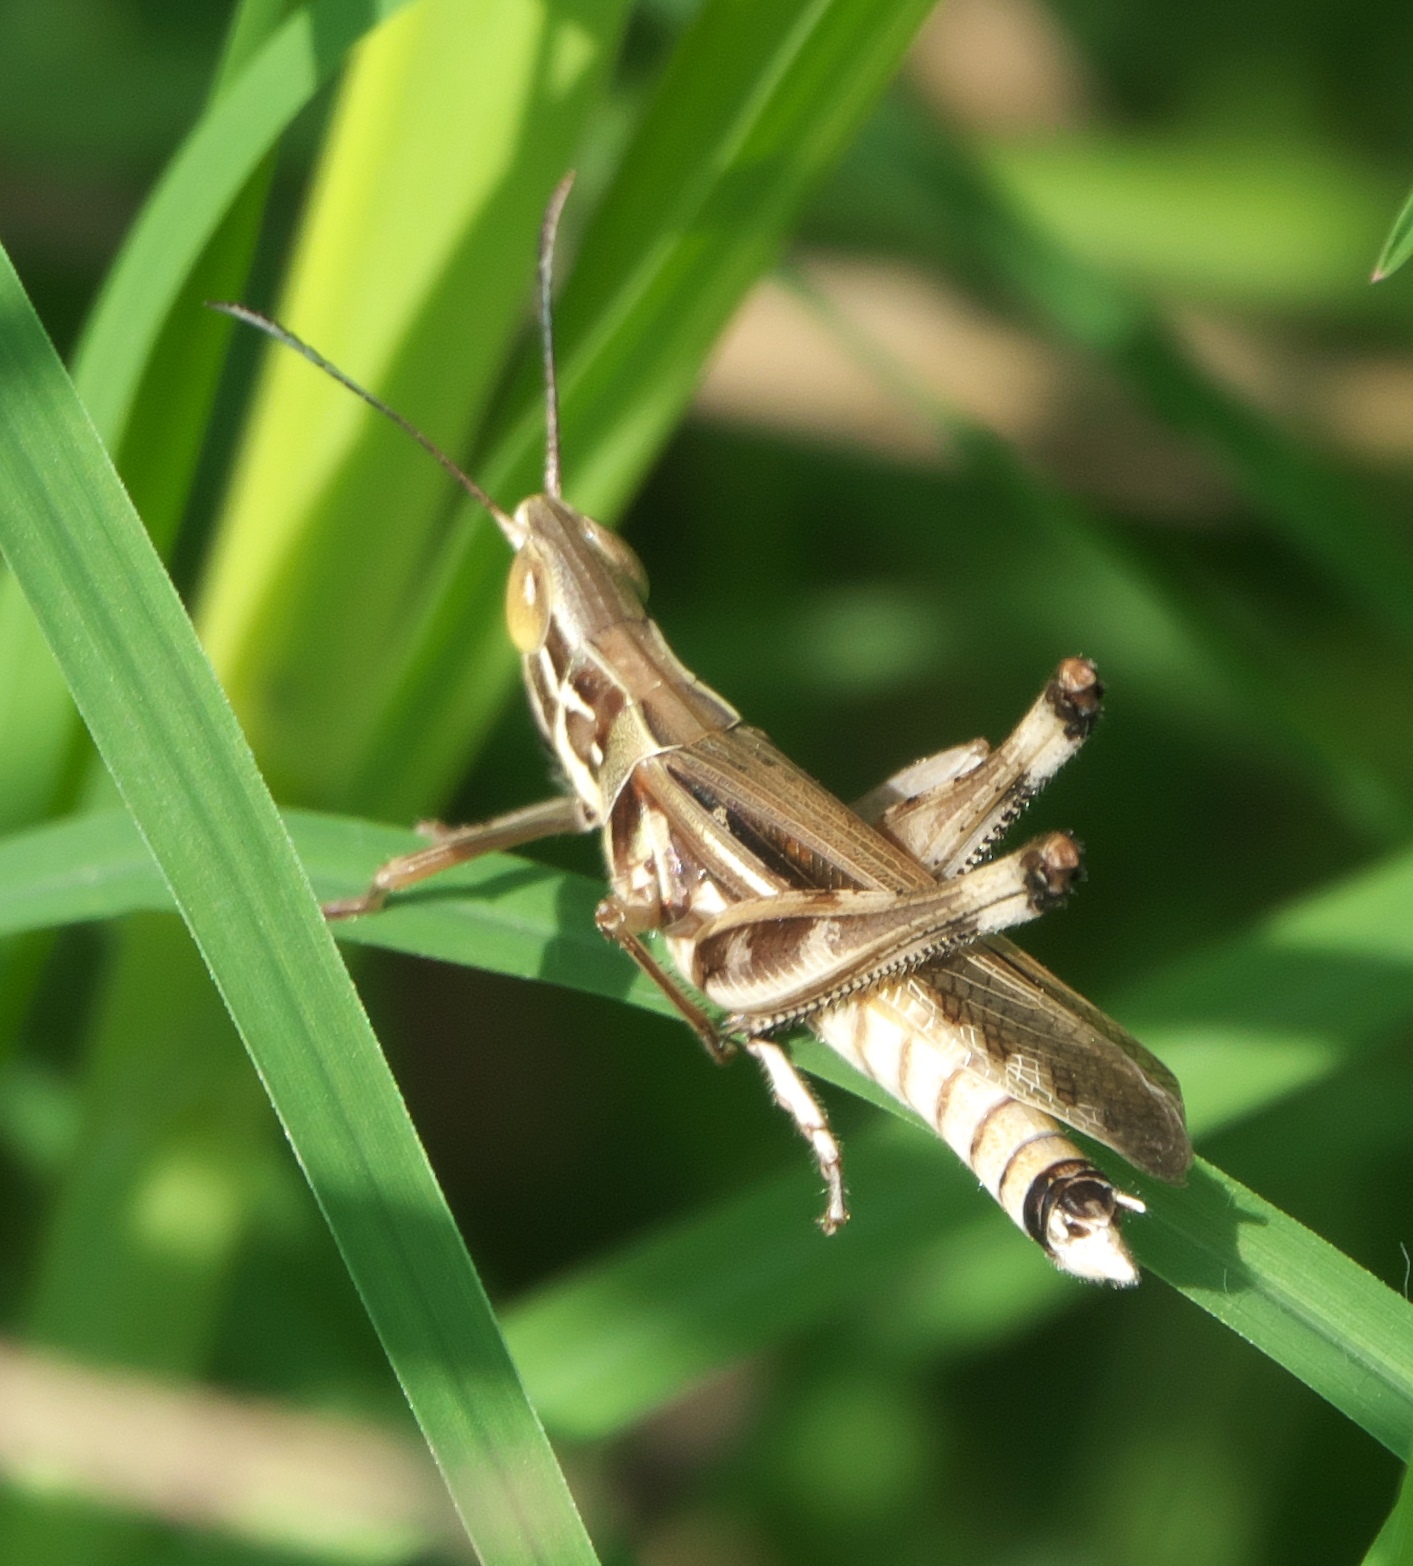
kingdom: Animalia
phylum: Arthropoda
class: Insecta
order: Orthoptera
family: Acrididae
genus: Syrbula
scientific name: Syrbula admirabilis
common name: Handsome grasshopper
